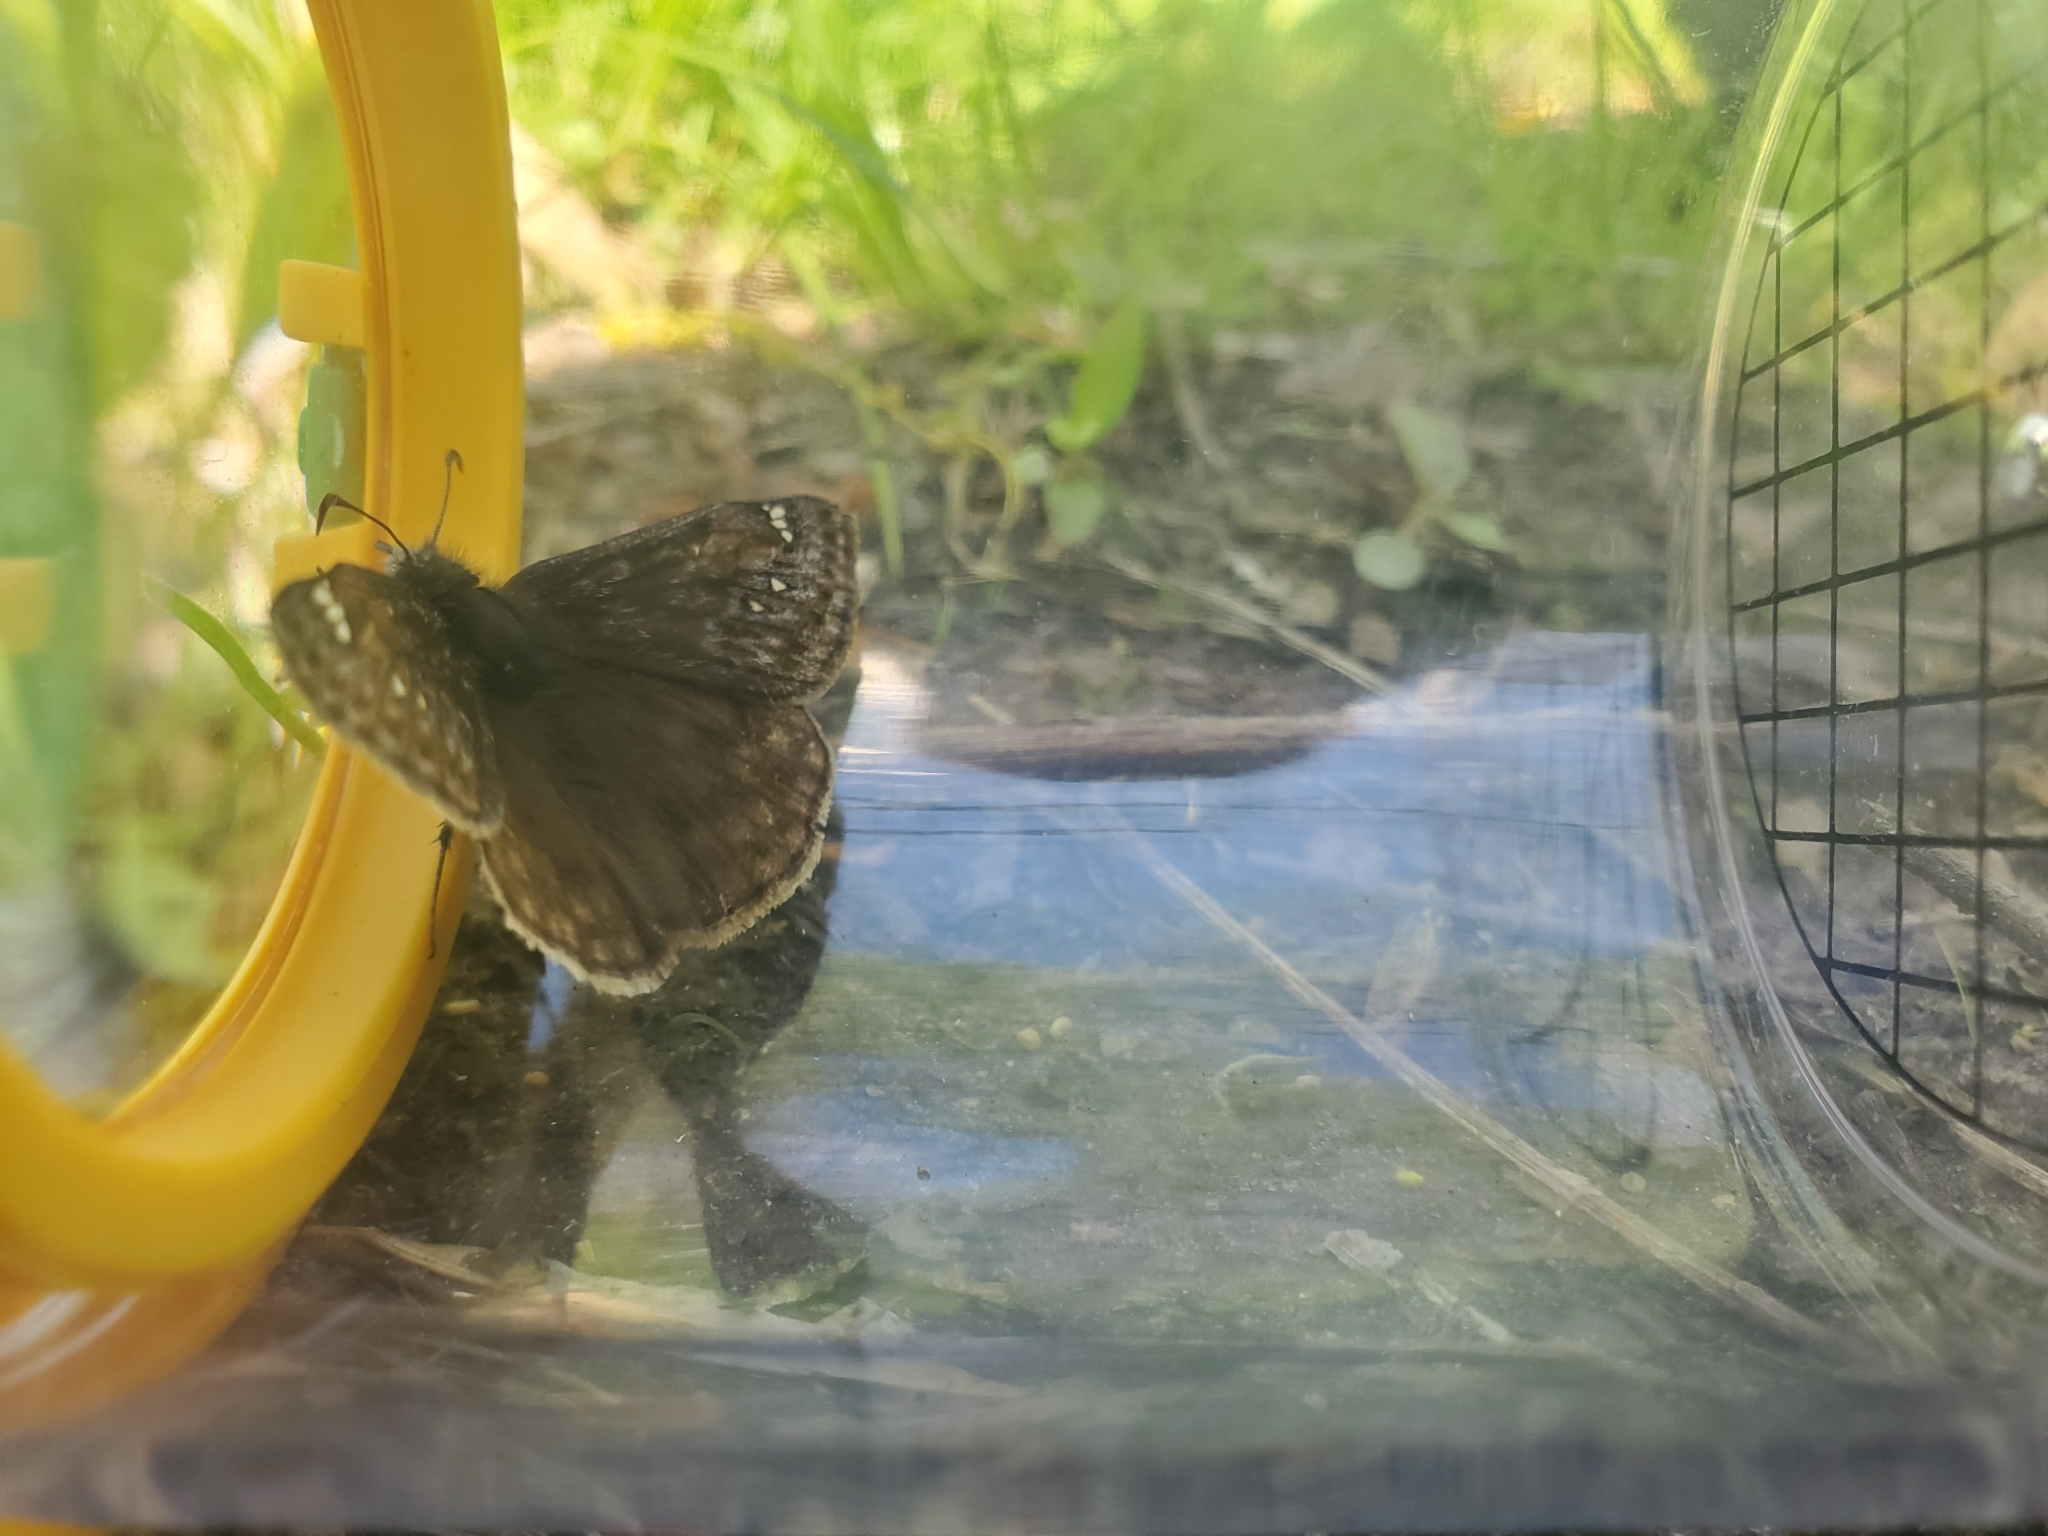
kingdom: Animalia
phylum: Arthropoda
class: Insecta
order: Lepidoptera
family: Hesperiidae
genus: Erynnis
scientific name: Erynnis juvenalis
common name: Juvenal's duskywing
